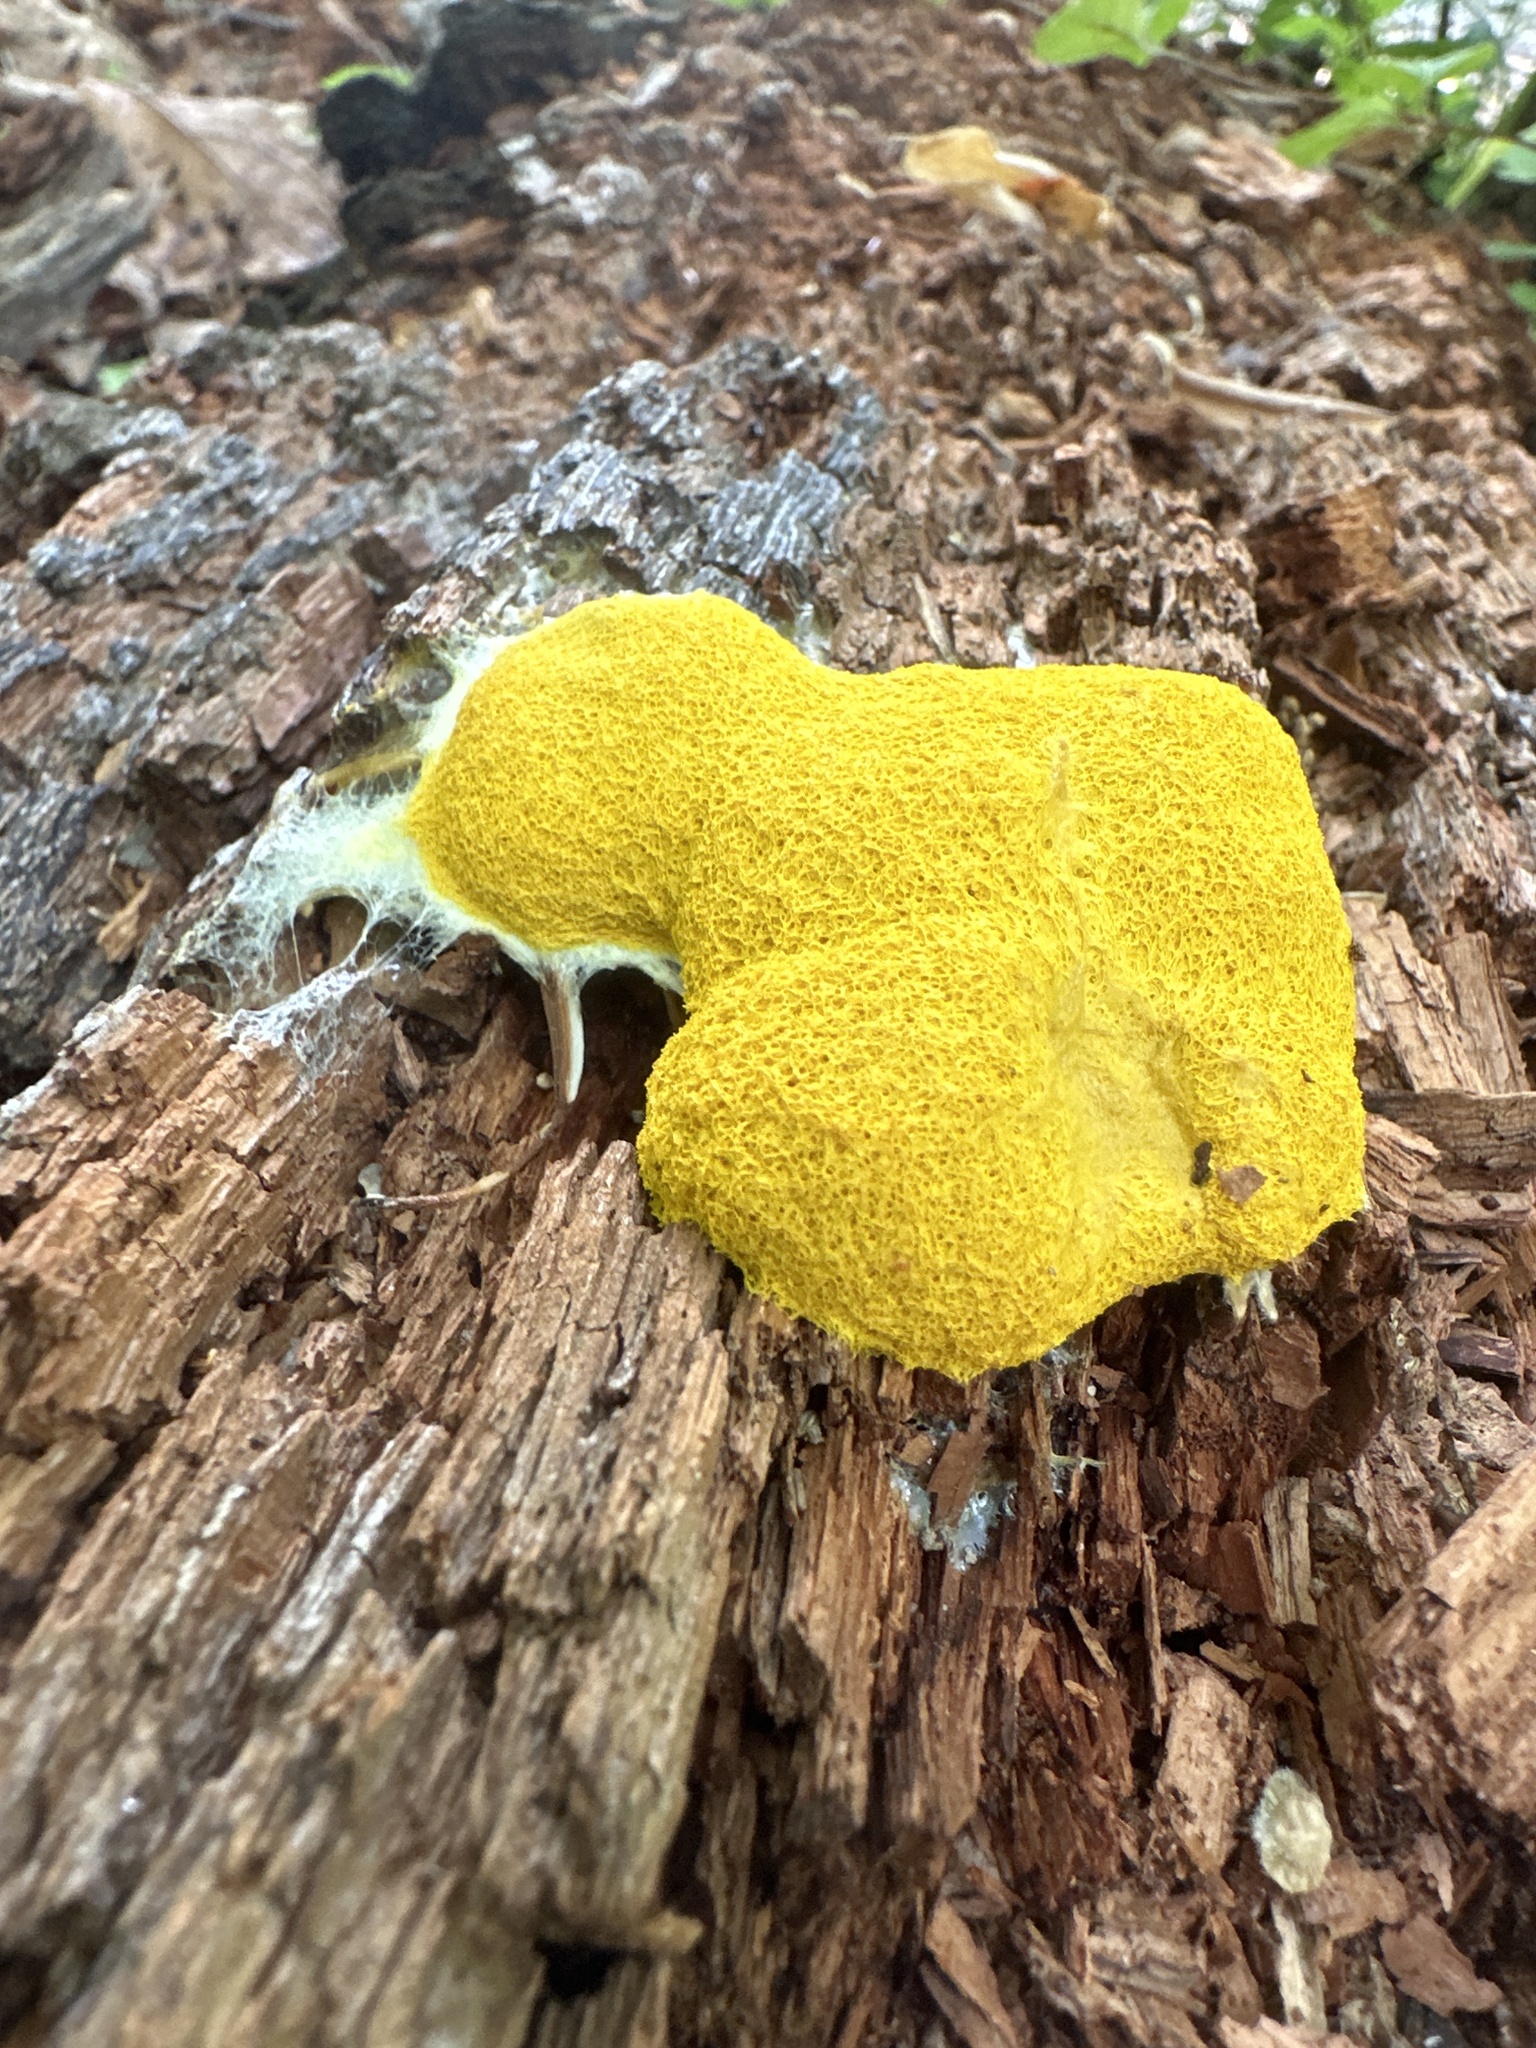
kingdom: Protozoa
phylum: Mycetozoa
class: Myxomycetes
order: Physarales
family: Physaraceae
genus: Fuligo
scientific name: Fuligo septica
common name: Dog vomit slime mold
